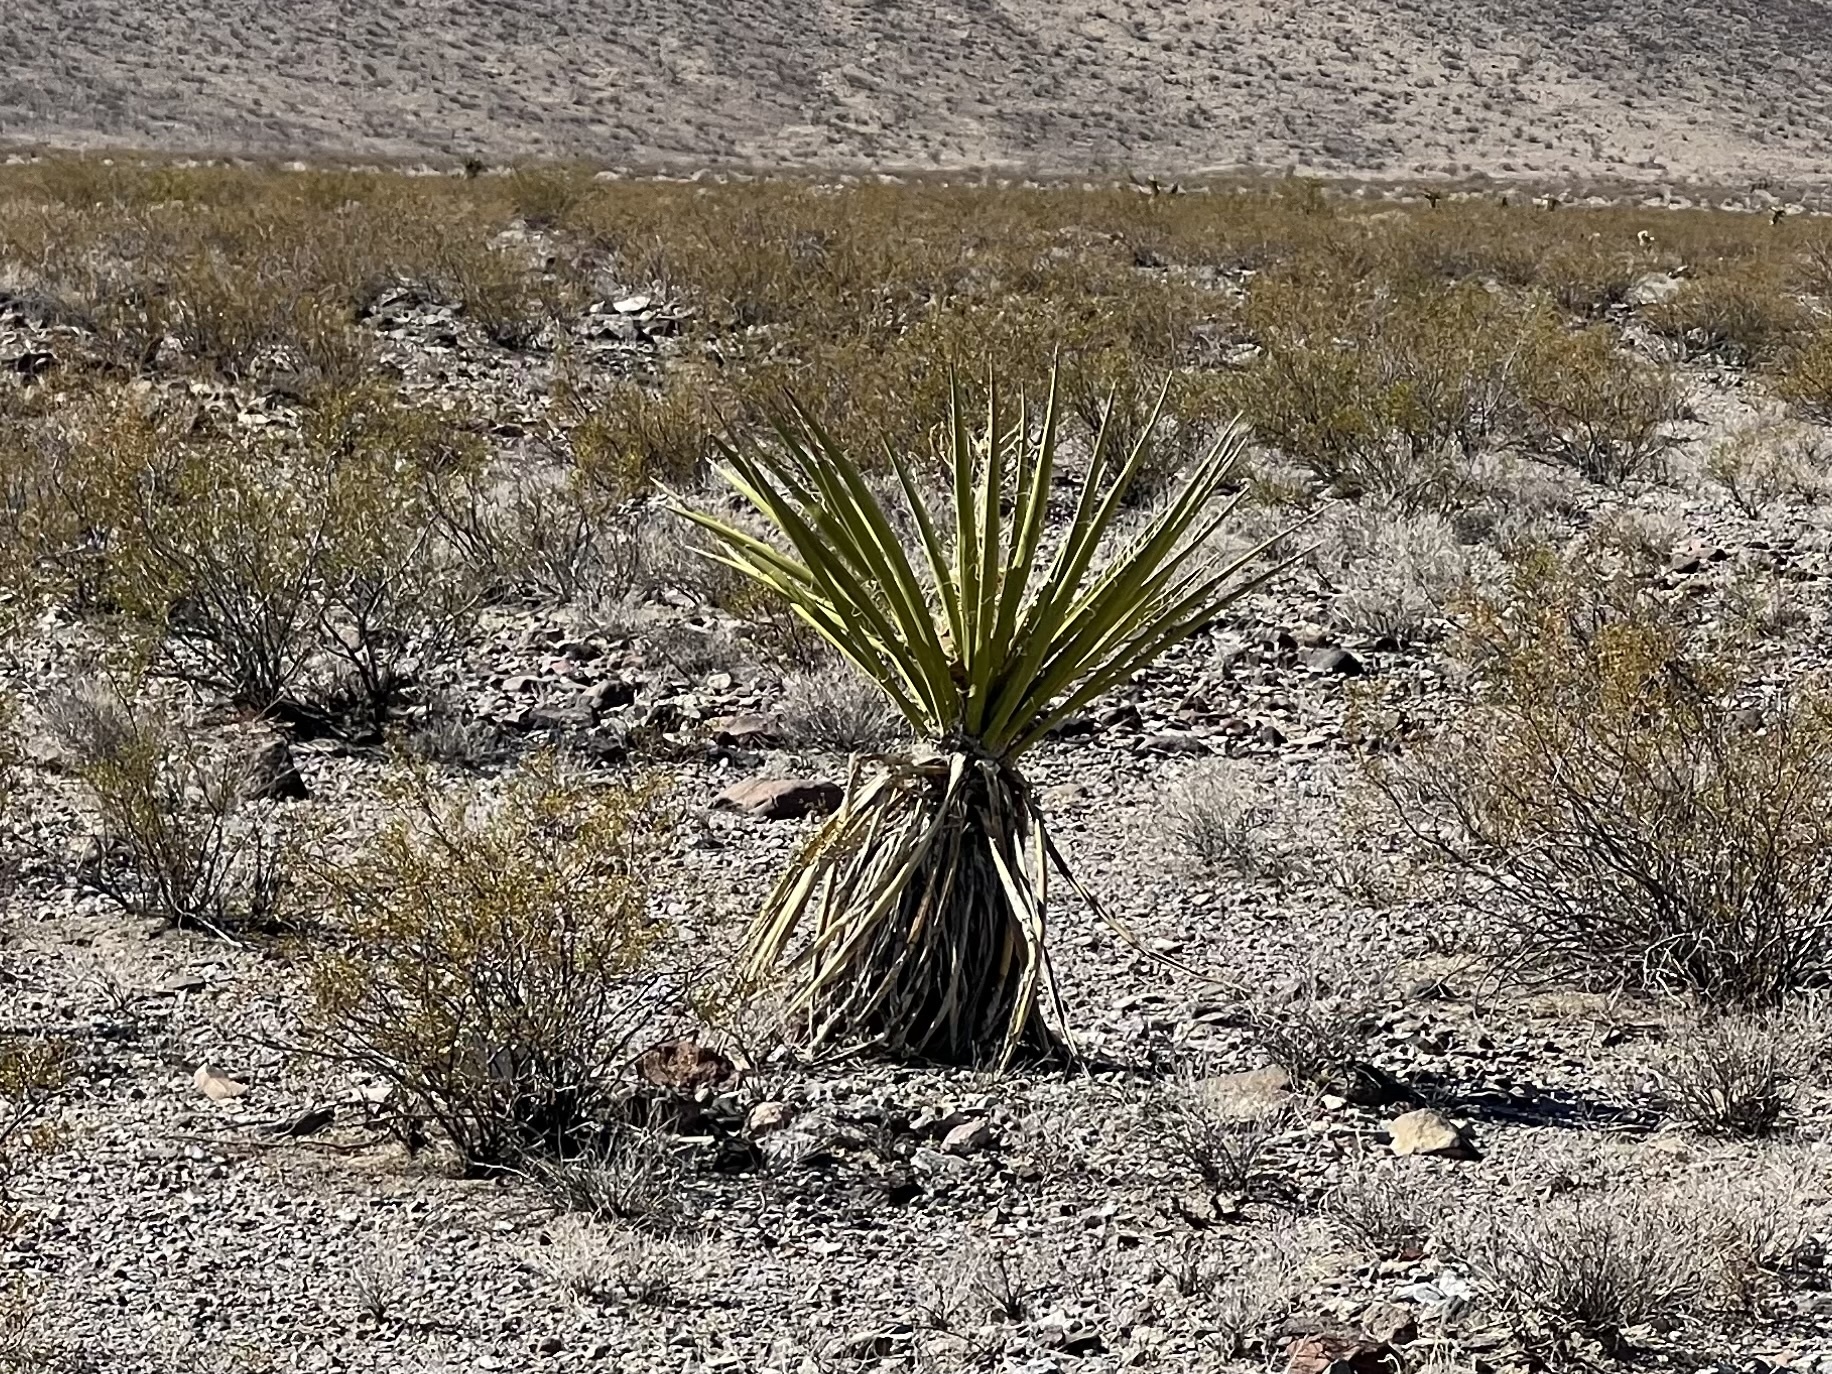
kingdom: Plantae
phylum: Tracheophyta
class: Liliopsida
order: Asparagales
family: Asparagaceae
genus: Yucca
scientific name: Yucca schidigera
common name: Mojave yucca
